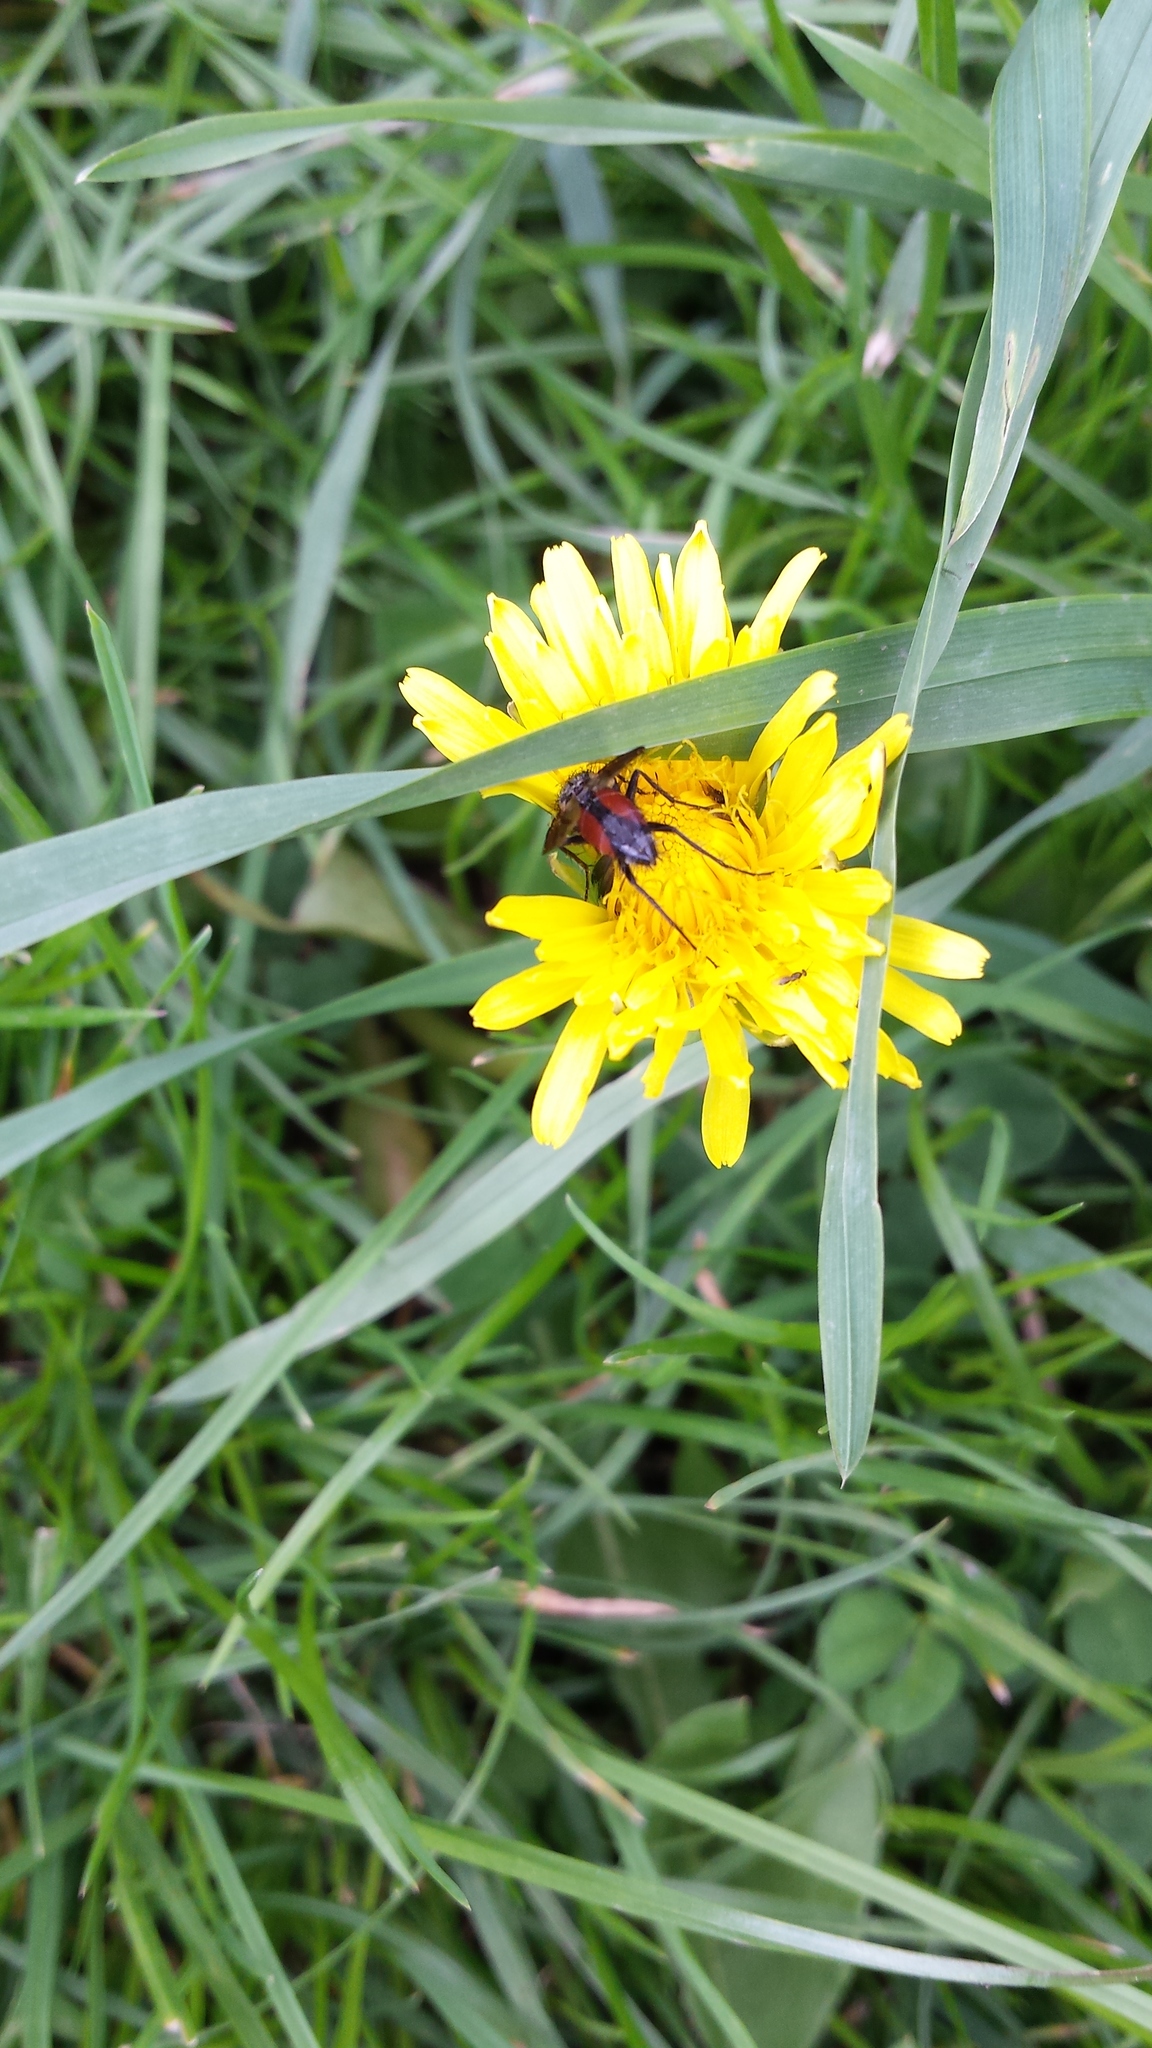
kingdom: Animalia
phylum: Arthropoda
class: Insecta
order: Diptera
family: Tachinidae
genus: Eriothrix
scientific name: Eriothrix rufomaculatus
